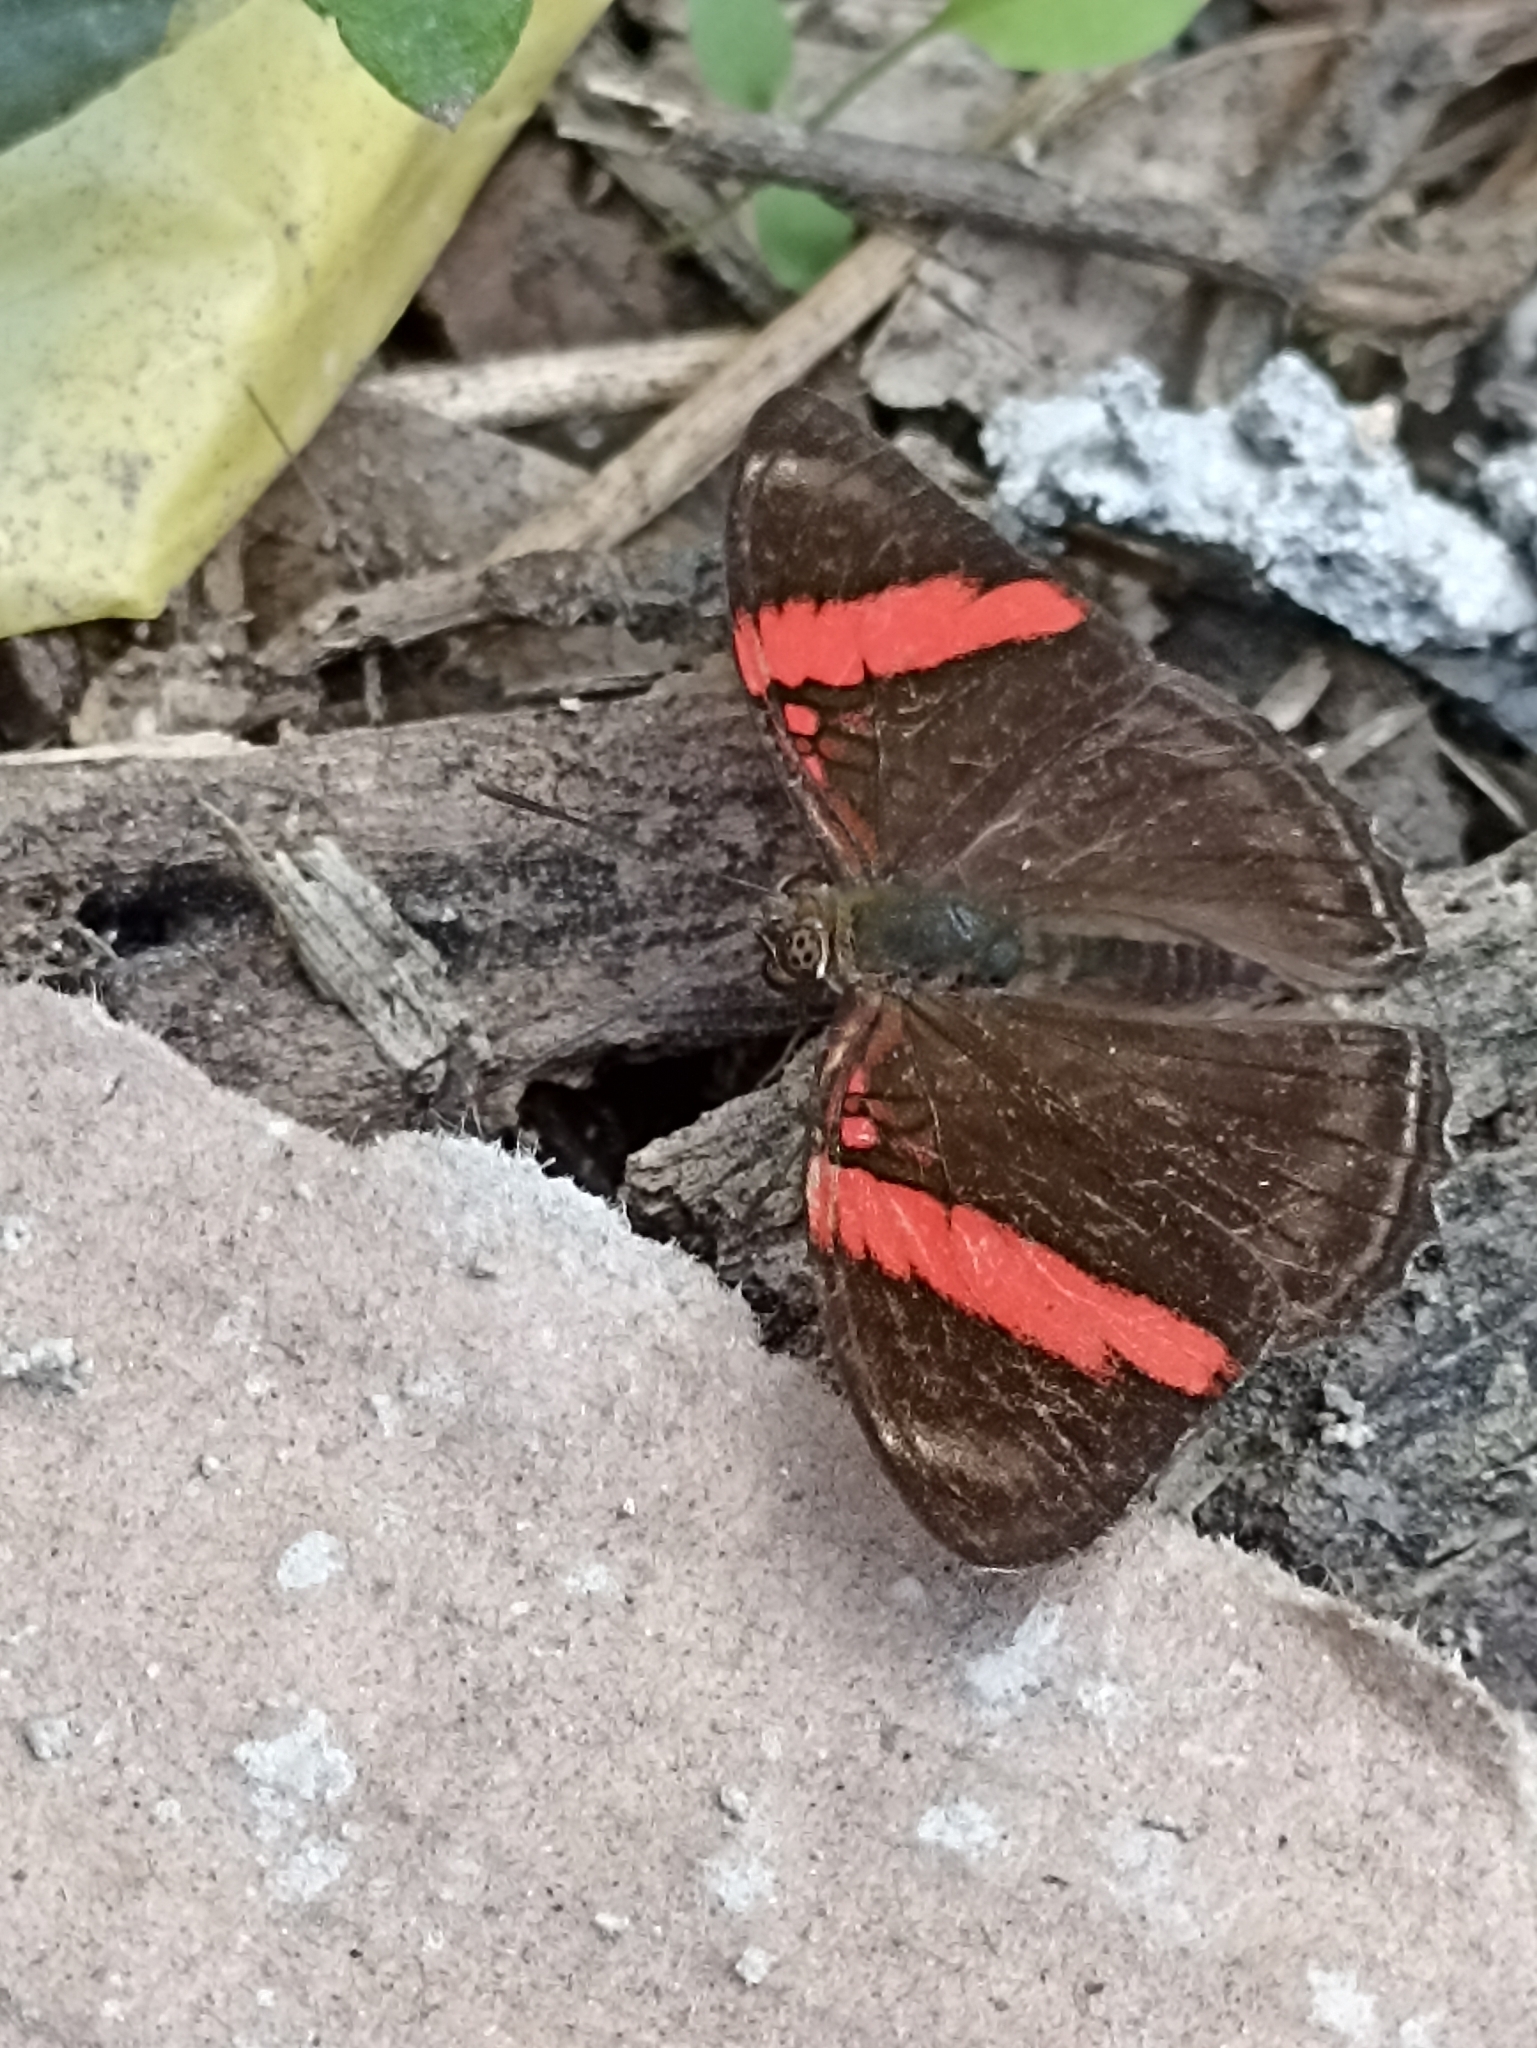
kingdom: Animalia
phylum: Arthropoda
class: Insecta
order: Lepidoptera
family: Nymphalidae
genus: Limenitis
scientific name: Limenitis isis
